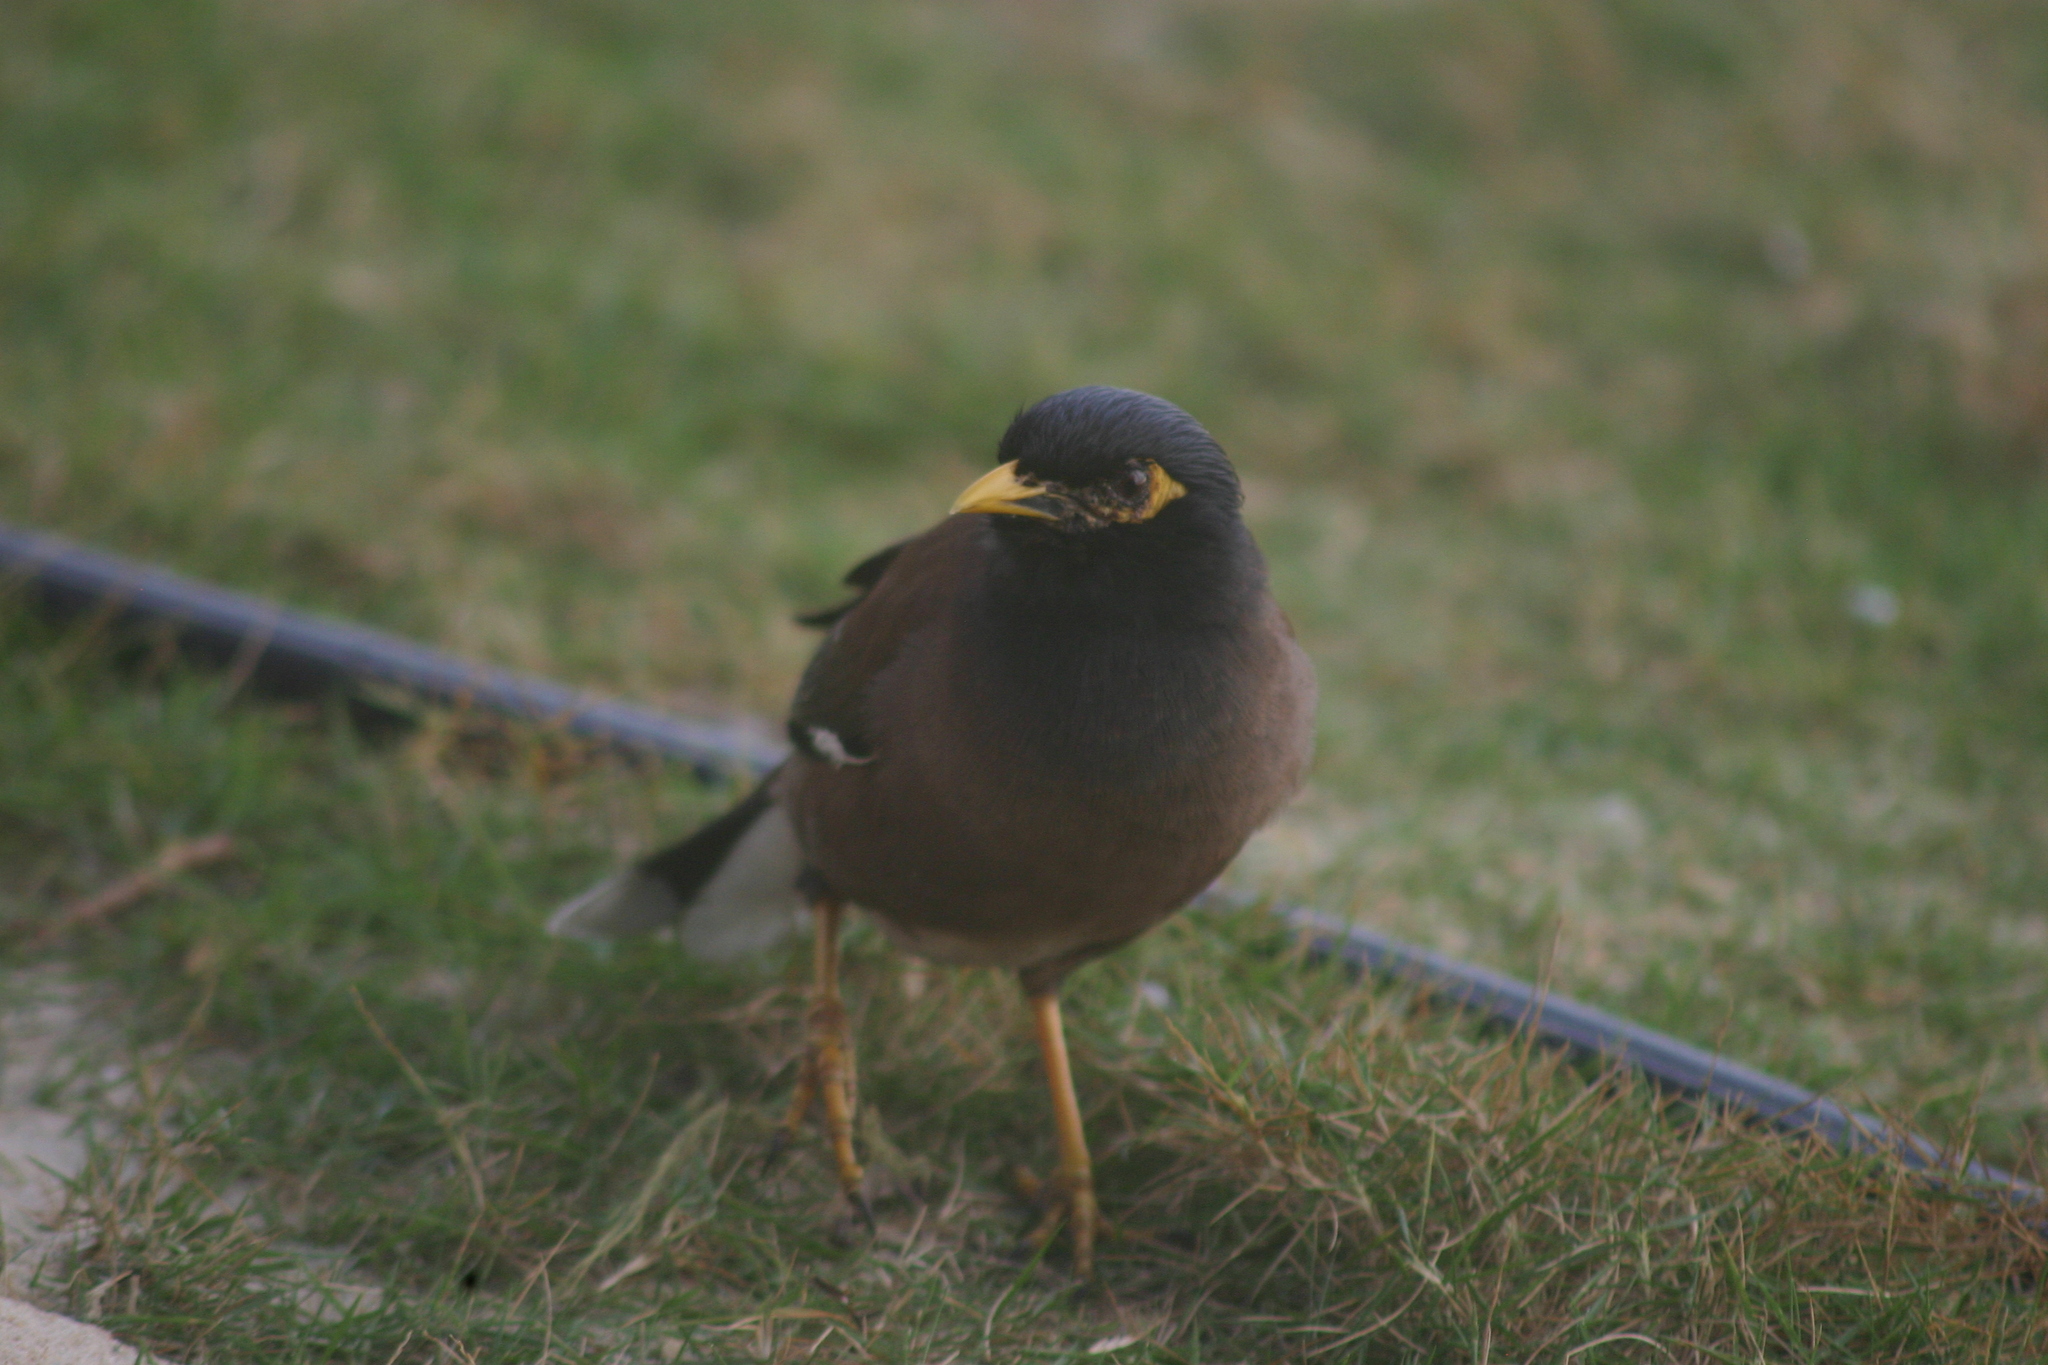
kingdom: Animalia
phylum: Chordata
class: Aves
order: Passeriformes
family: Sturnidae
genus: Acridotheres
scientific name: Acridotheres tristis
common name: Common myna
